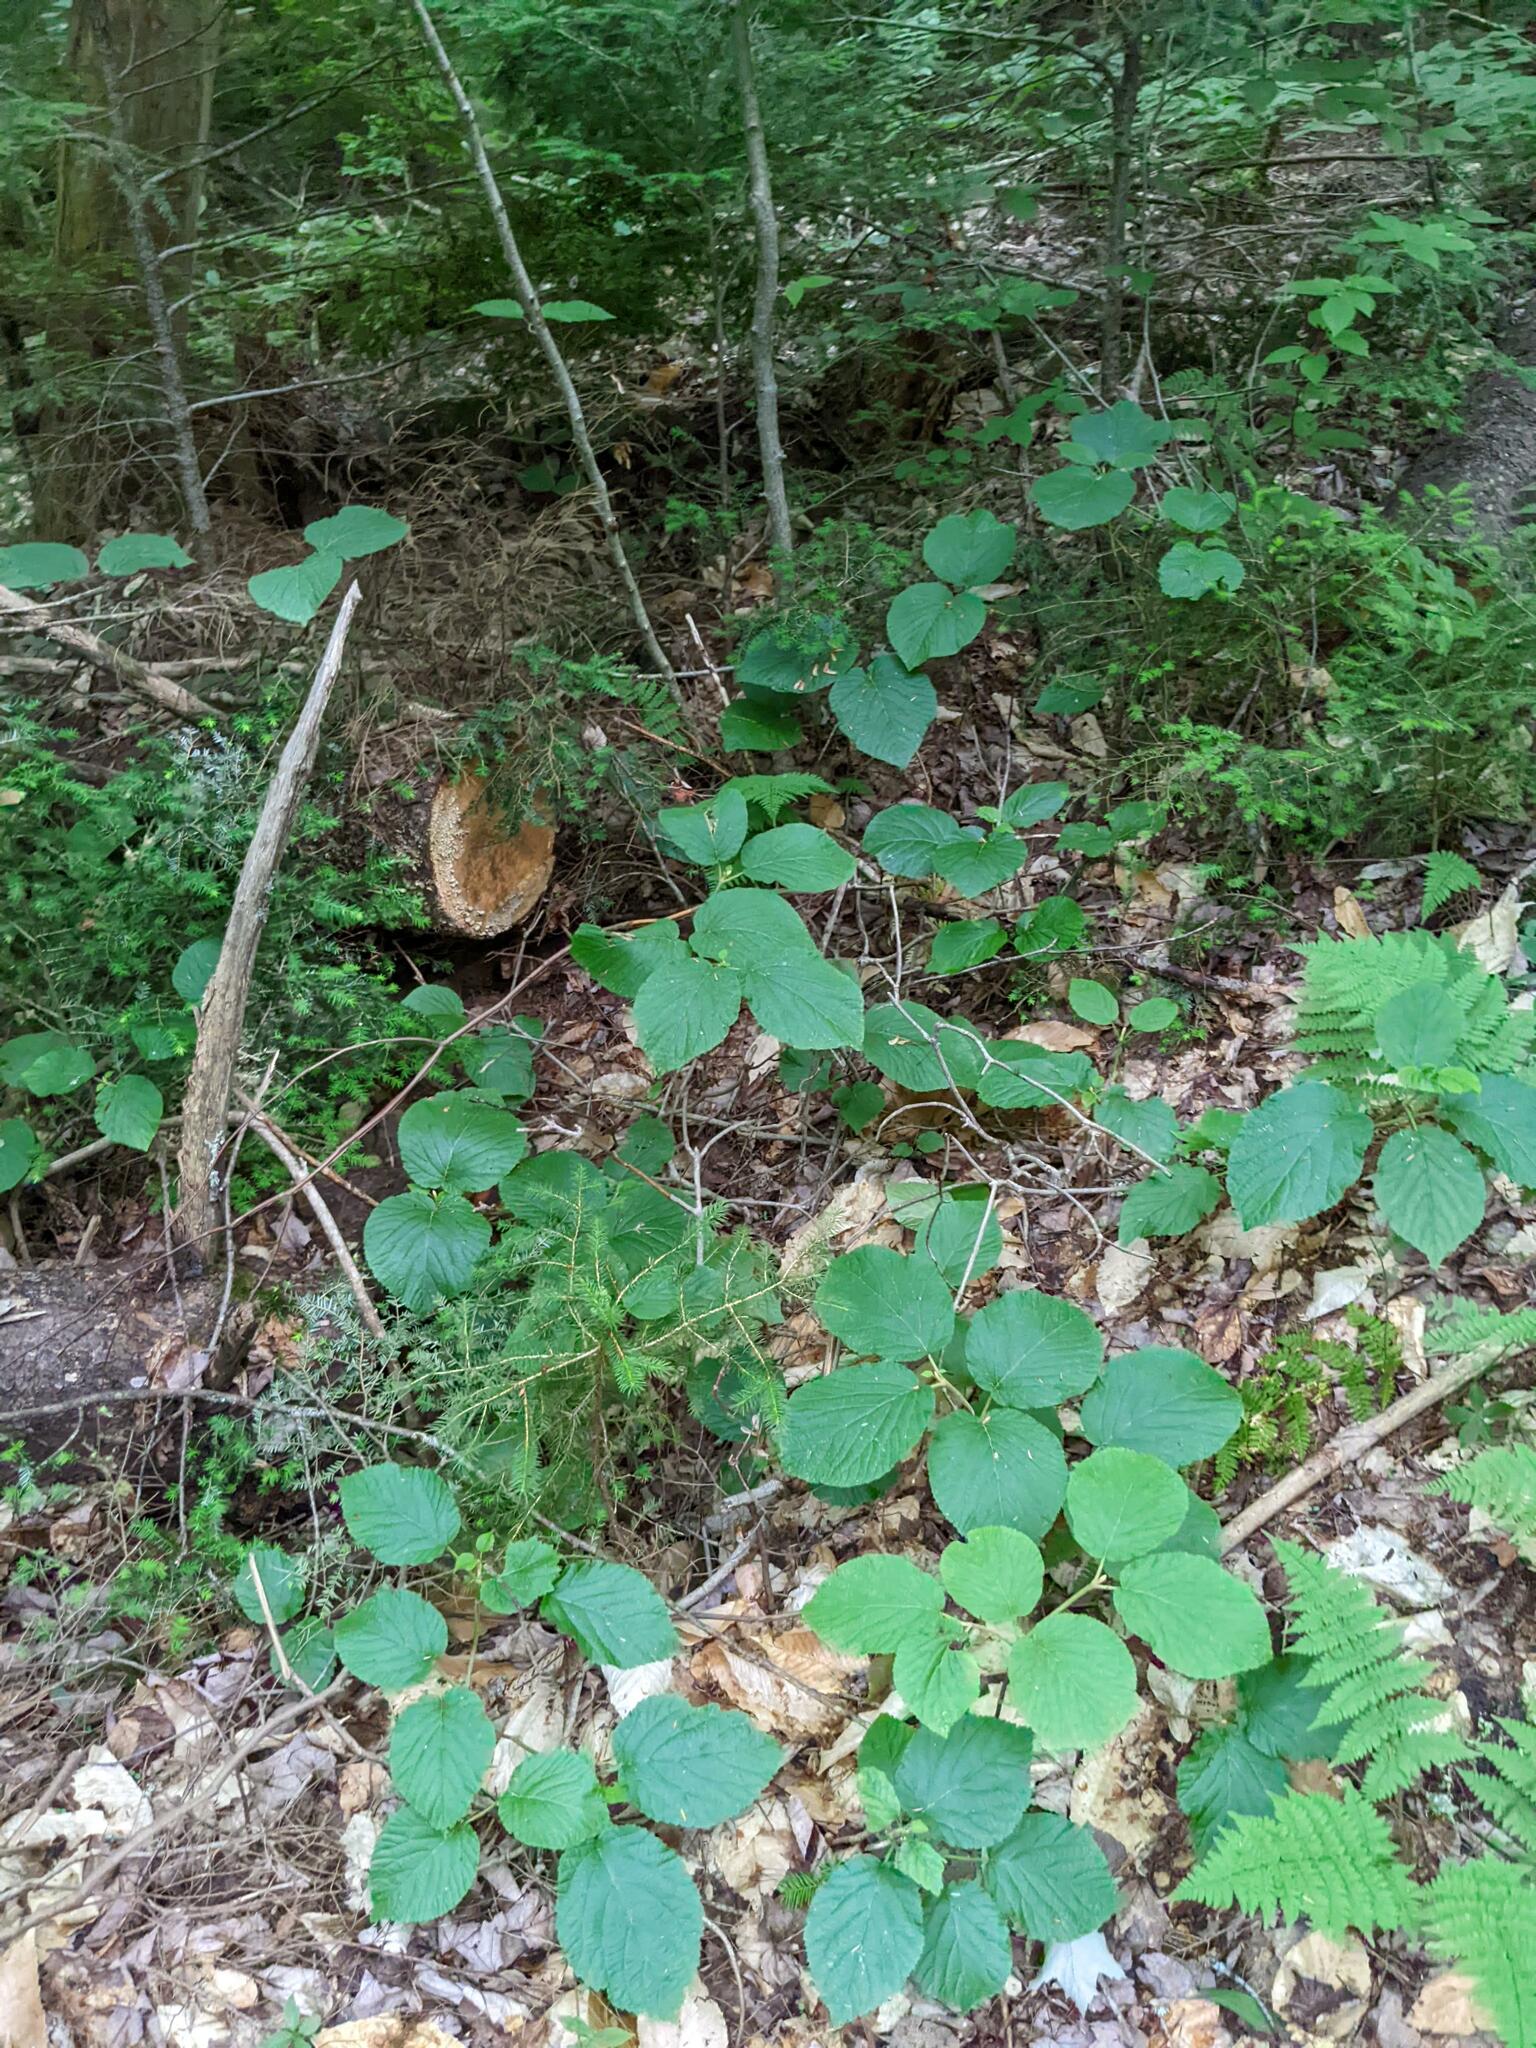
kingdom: Plantae
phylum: Tracheophyta
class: Magnoliopsida
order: Dipsacales
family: Viburnaceae
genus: Viburnum
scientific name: Viburnum lantanoides
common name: Hobblebush
